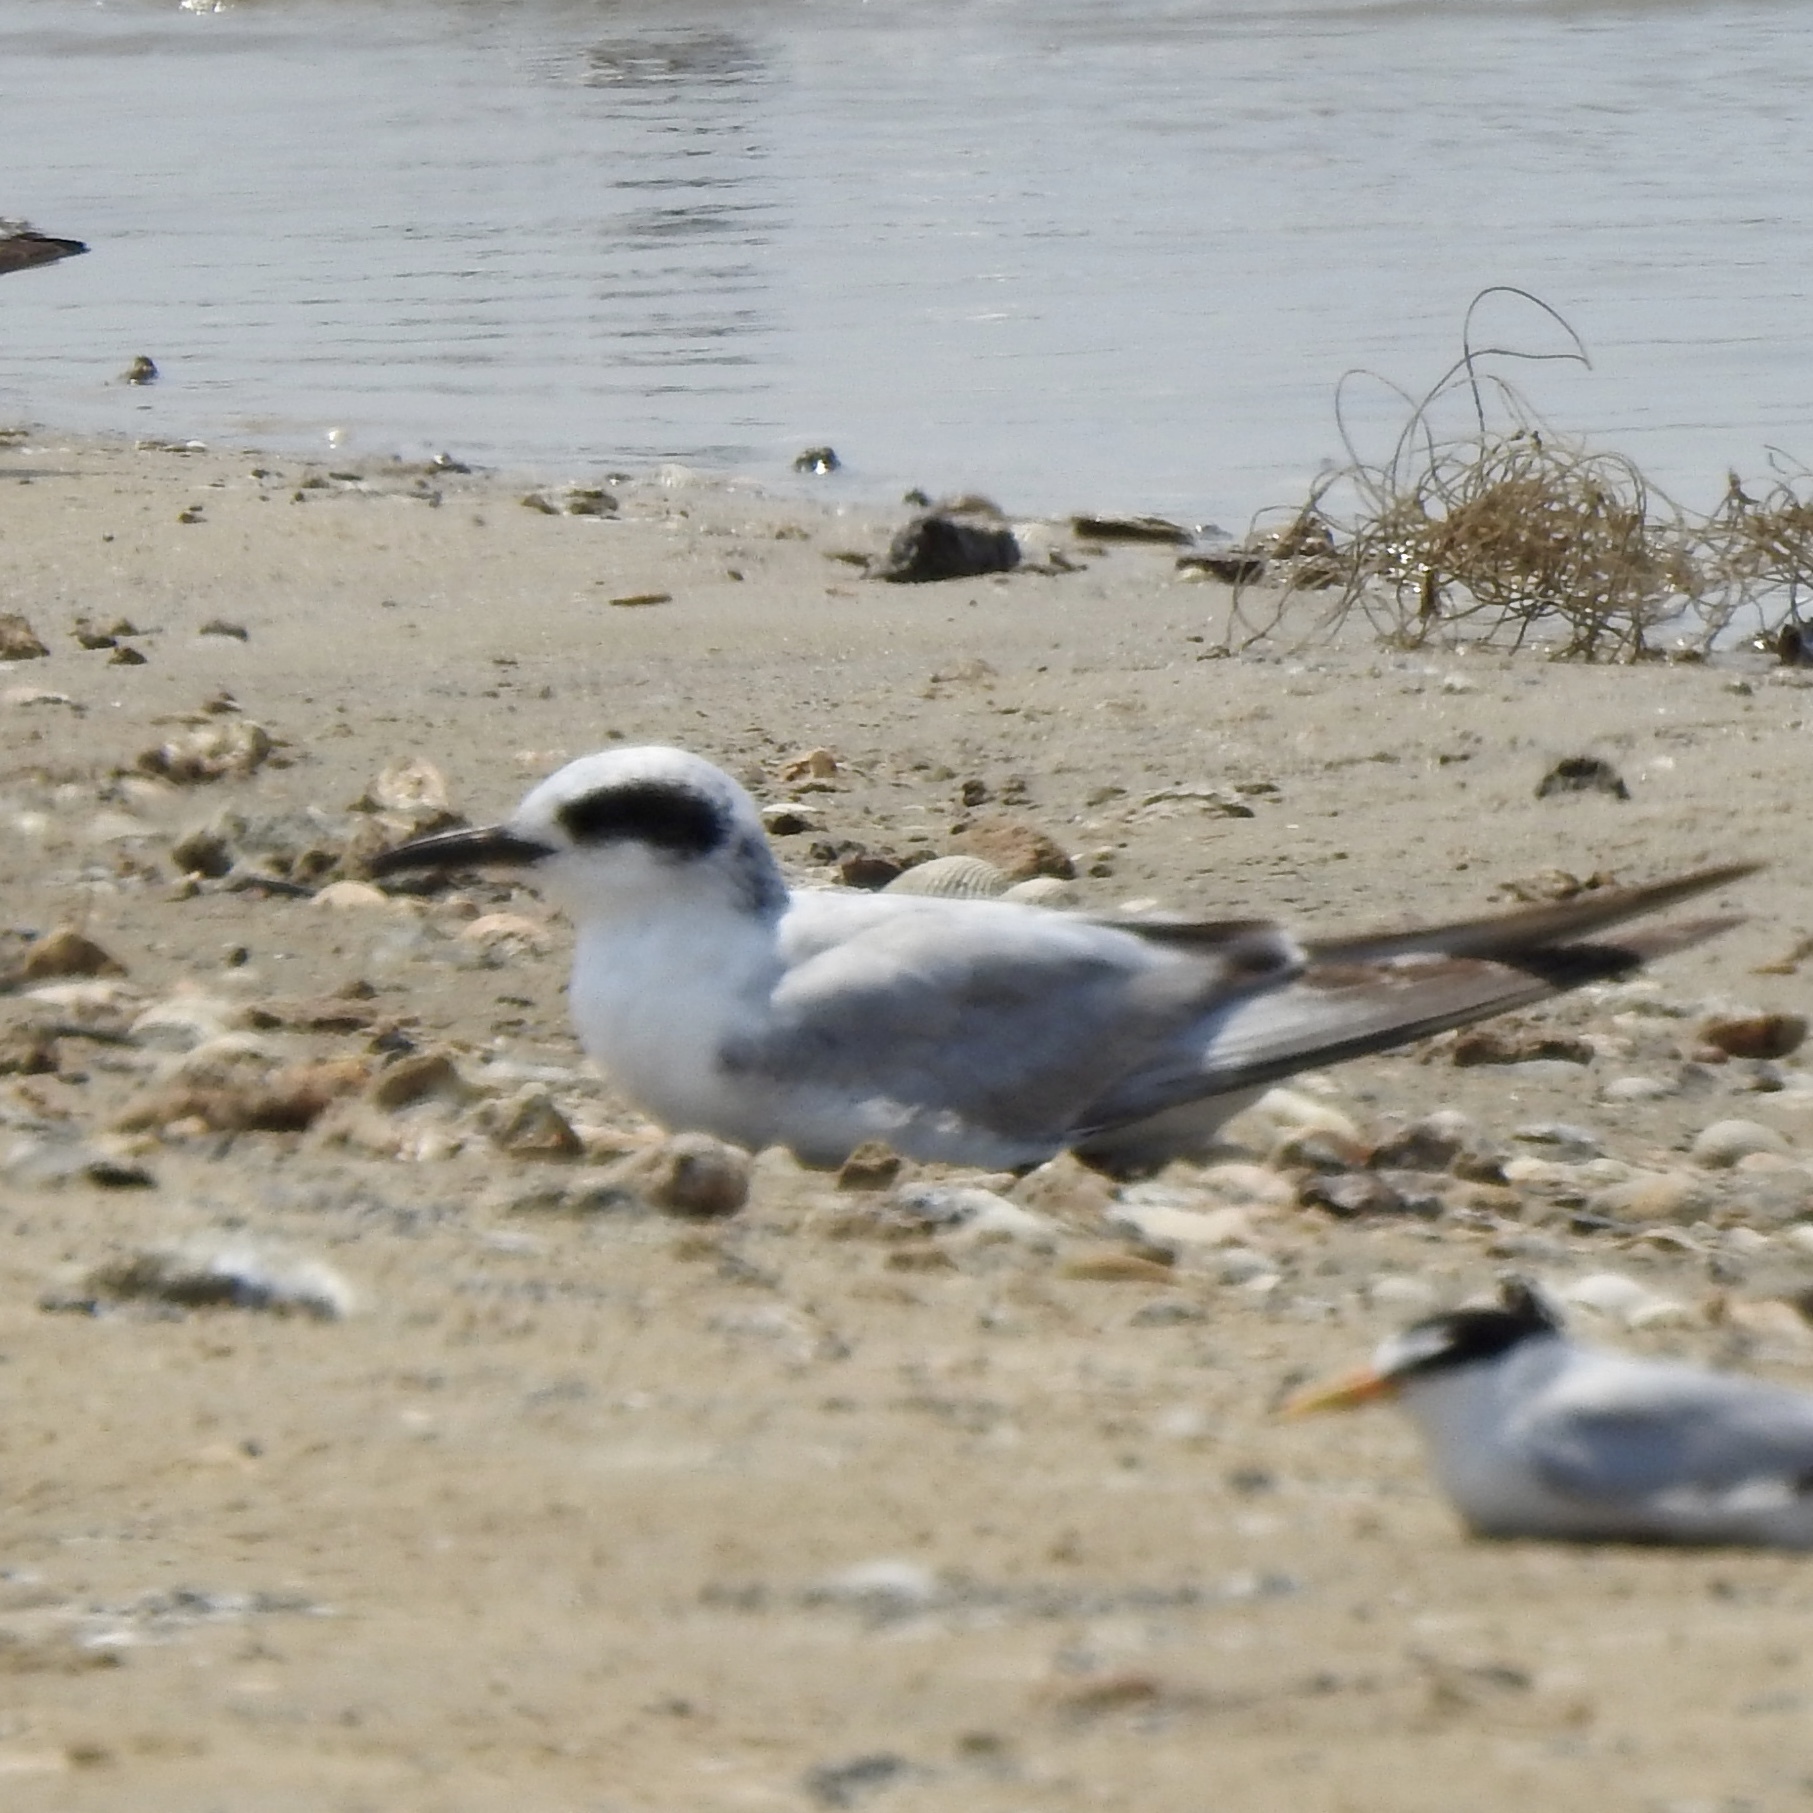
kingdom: Animalia
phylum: Chordata
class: Aves
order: Charadriiformes
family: Laridae
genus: Sterna
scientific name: Sterna forsteri
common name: Forster's tern
